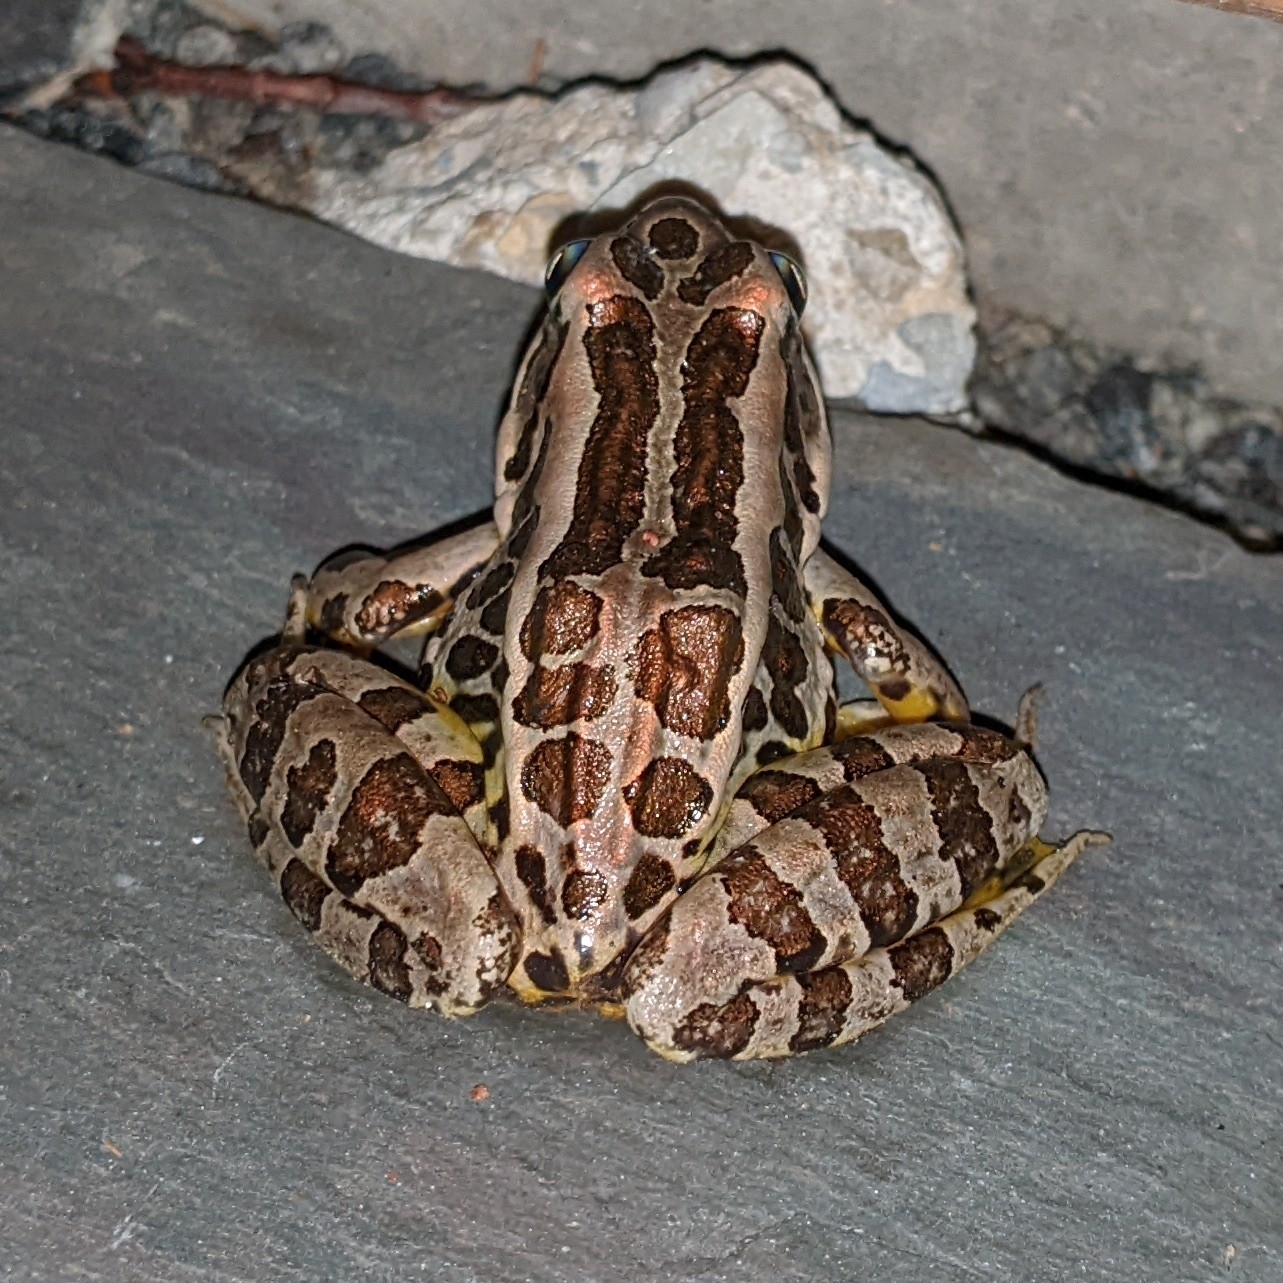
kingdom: Animalia
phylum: Chordata
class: Amphibia
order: Anura
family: Ranidae
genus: Lithobates
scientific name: Lithobates palustris
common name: Pickerel frog
